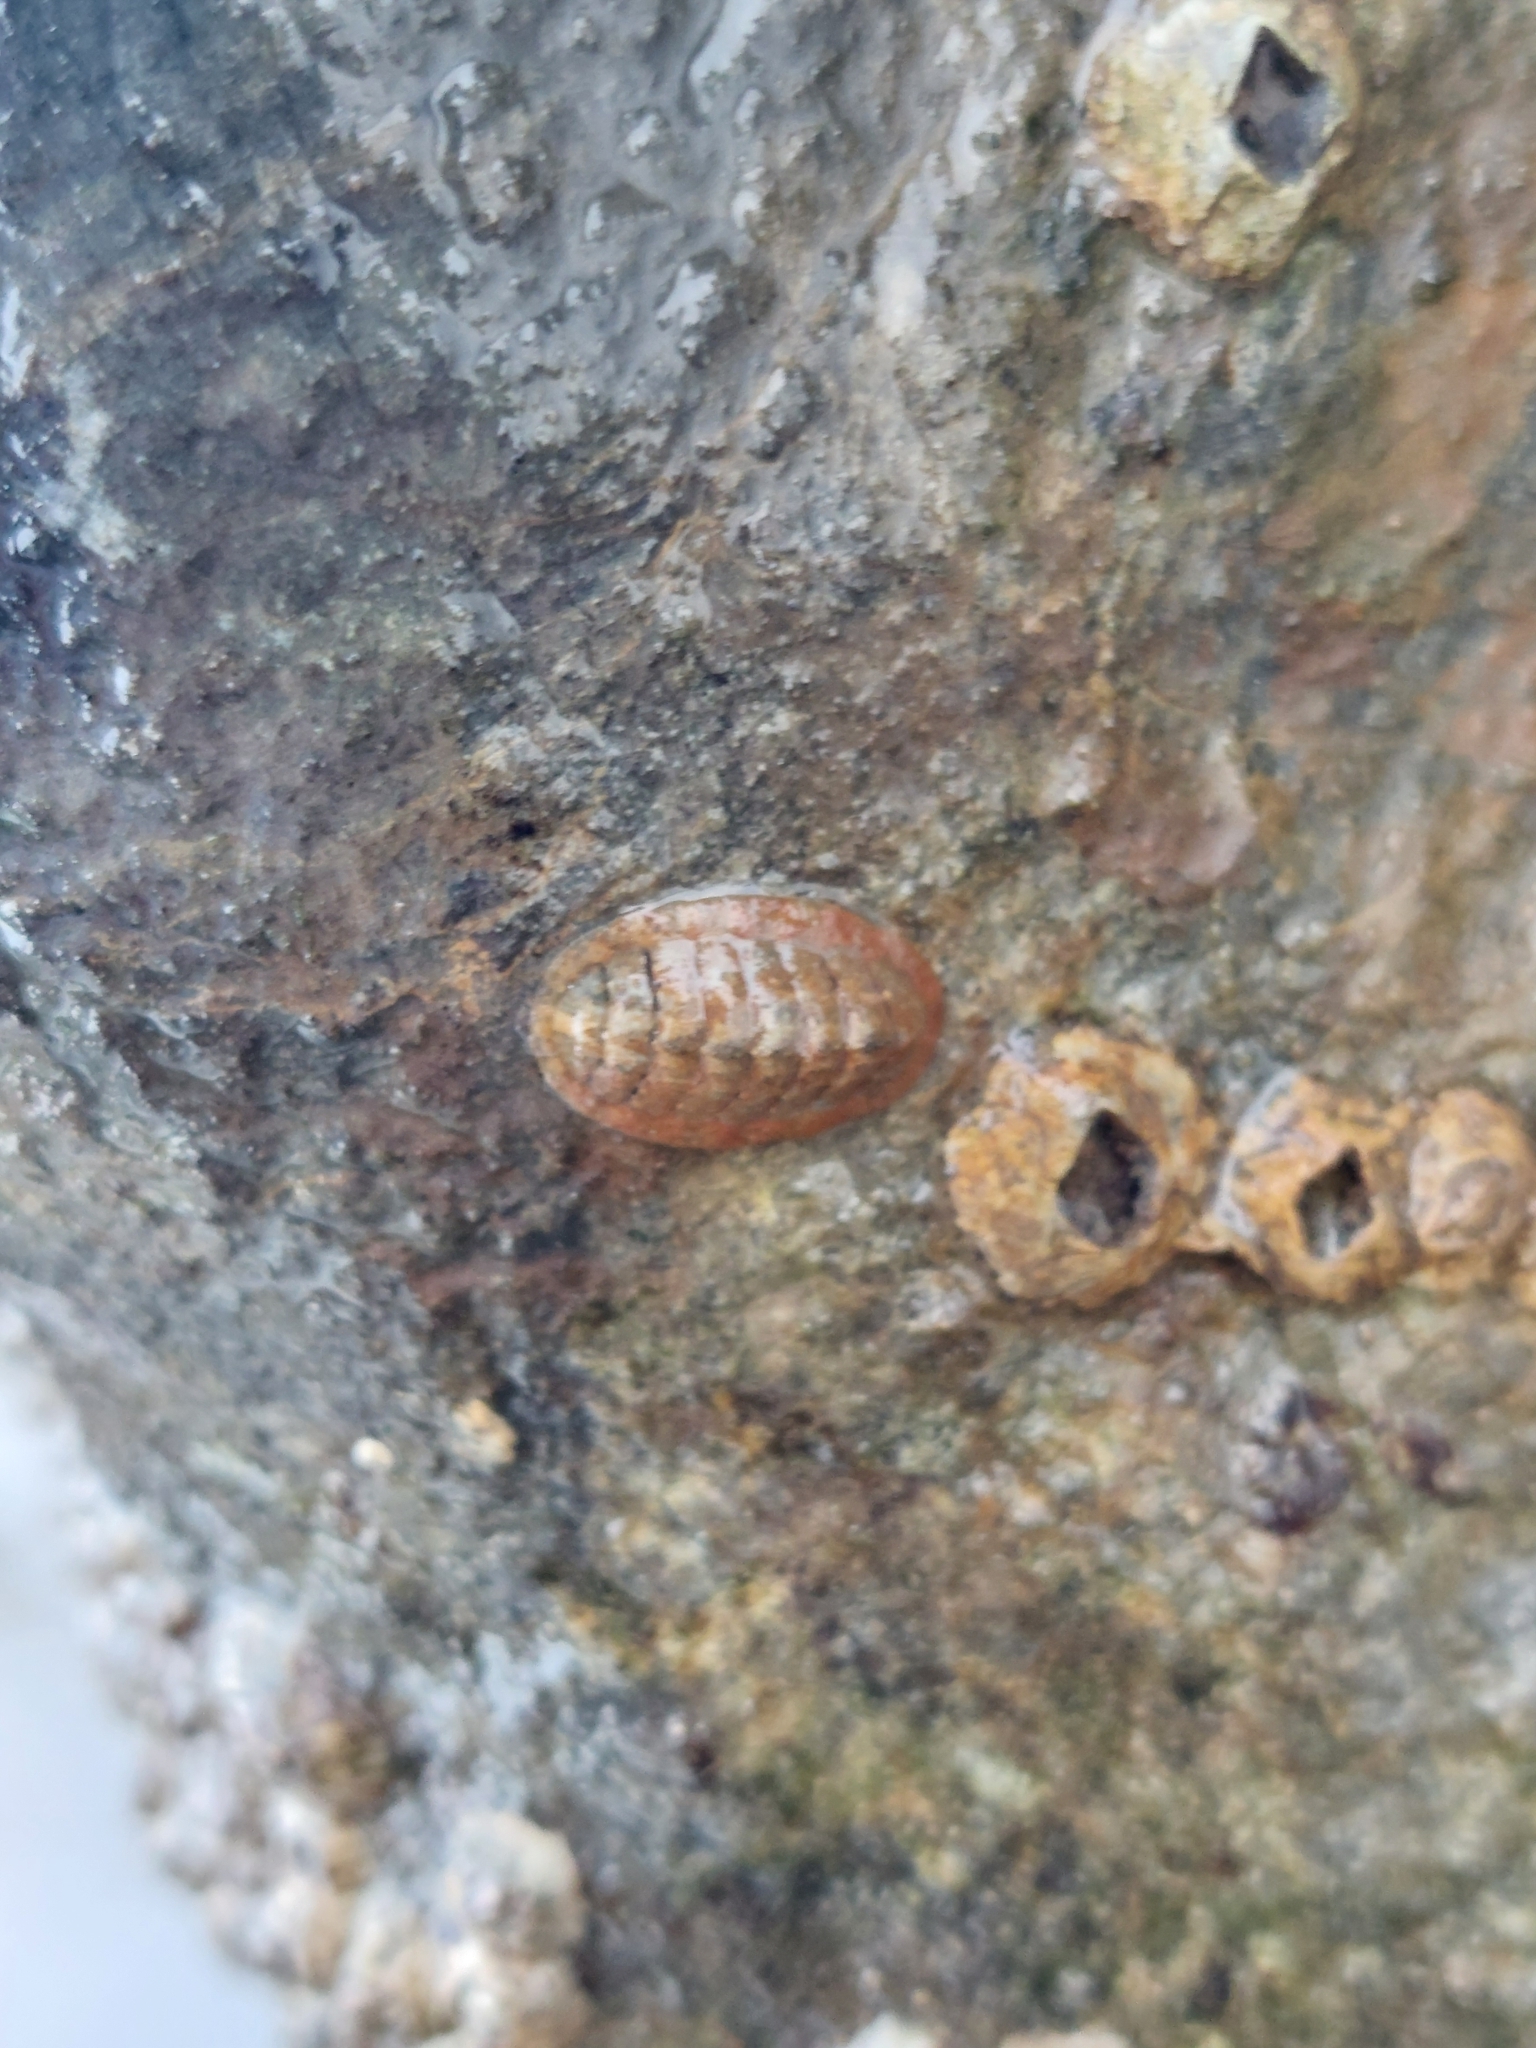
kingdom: Animalia
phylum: Mollusca
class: Polyplacophora
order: Chitonida
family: Tonicellidae
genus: Lepidochitona
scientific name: Lepidochitona cinerea
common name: Cinereous chiton
